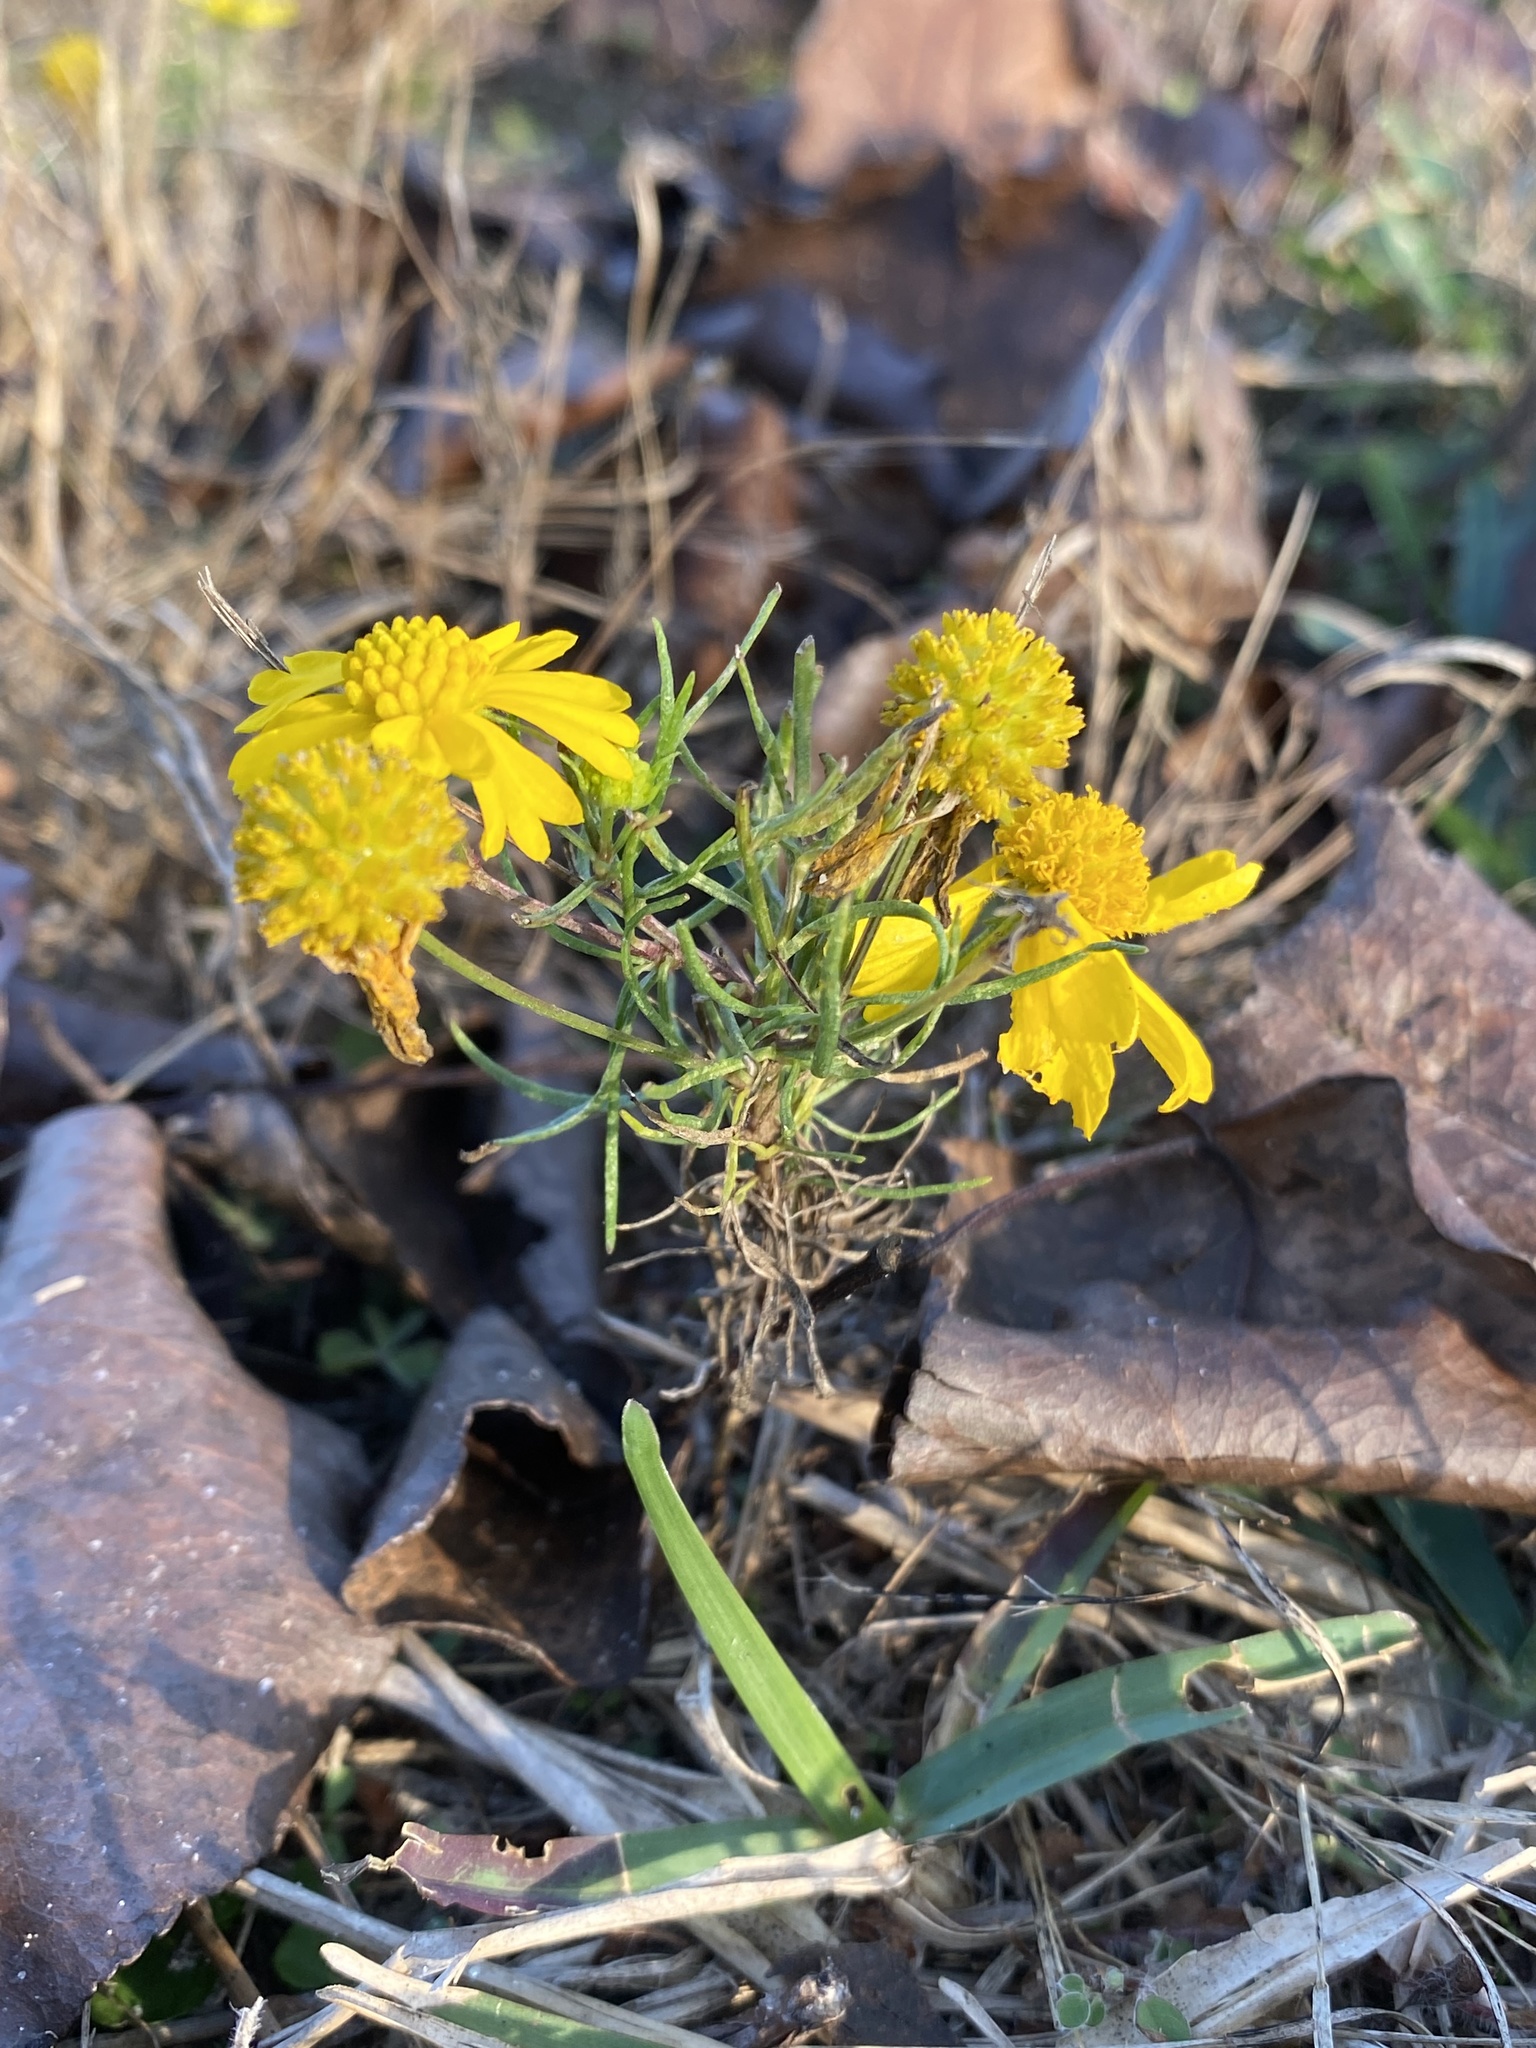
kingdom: Plantae
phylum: Tracheophyta
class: Magnoliopsida
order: Asterales
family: Asteraceae
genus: Helenium
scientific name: Helenium amarum
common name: Bitter sneezeweed
